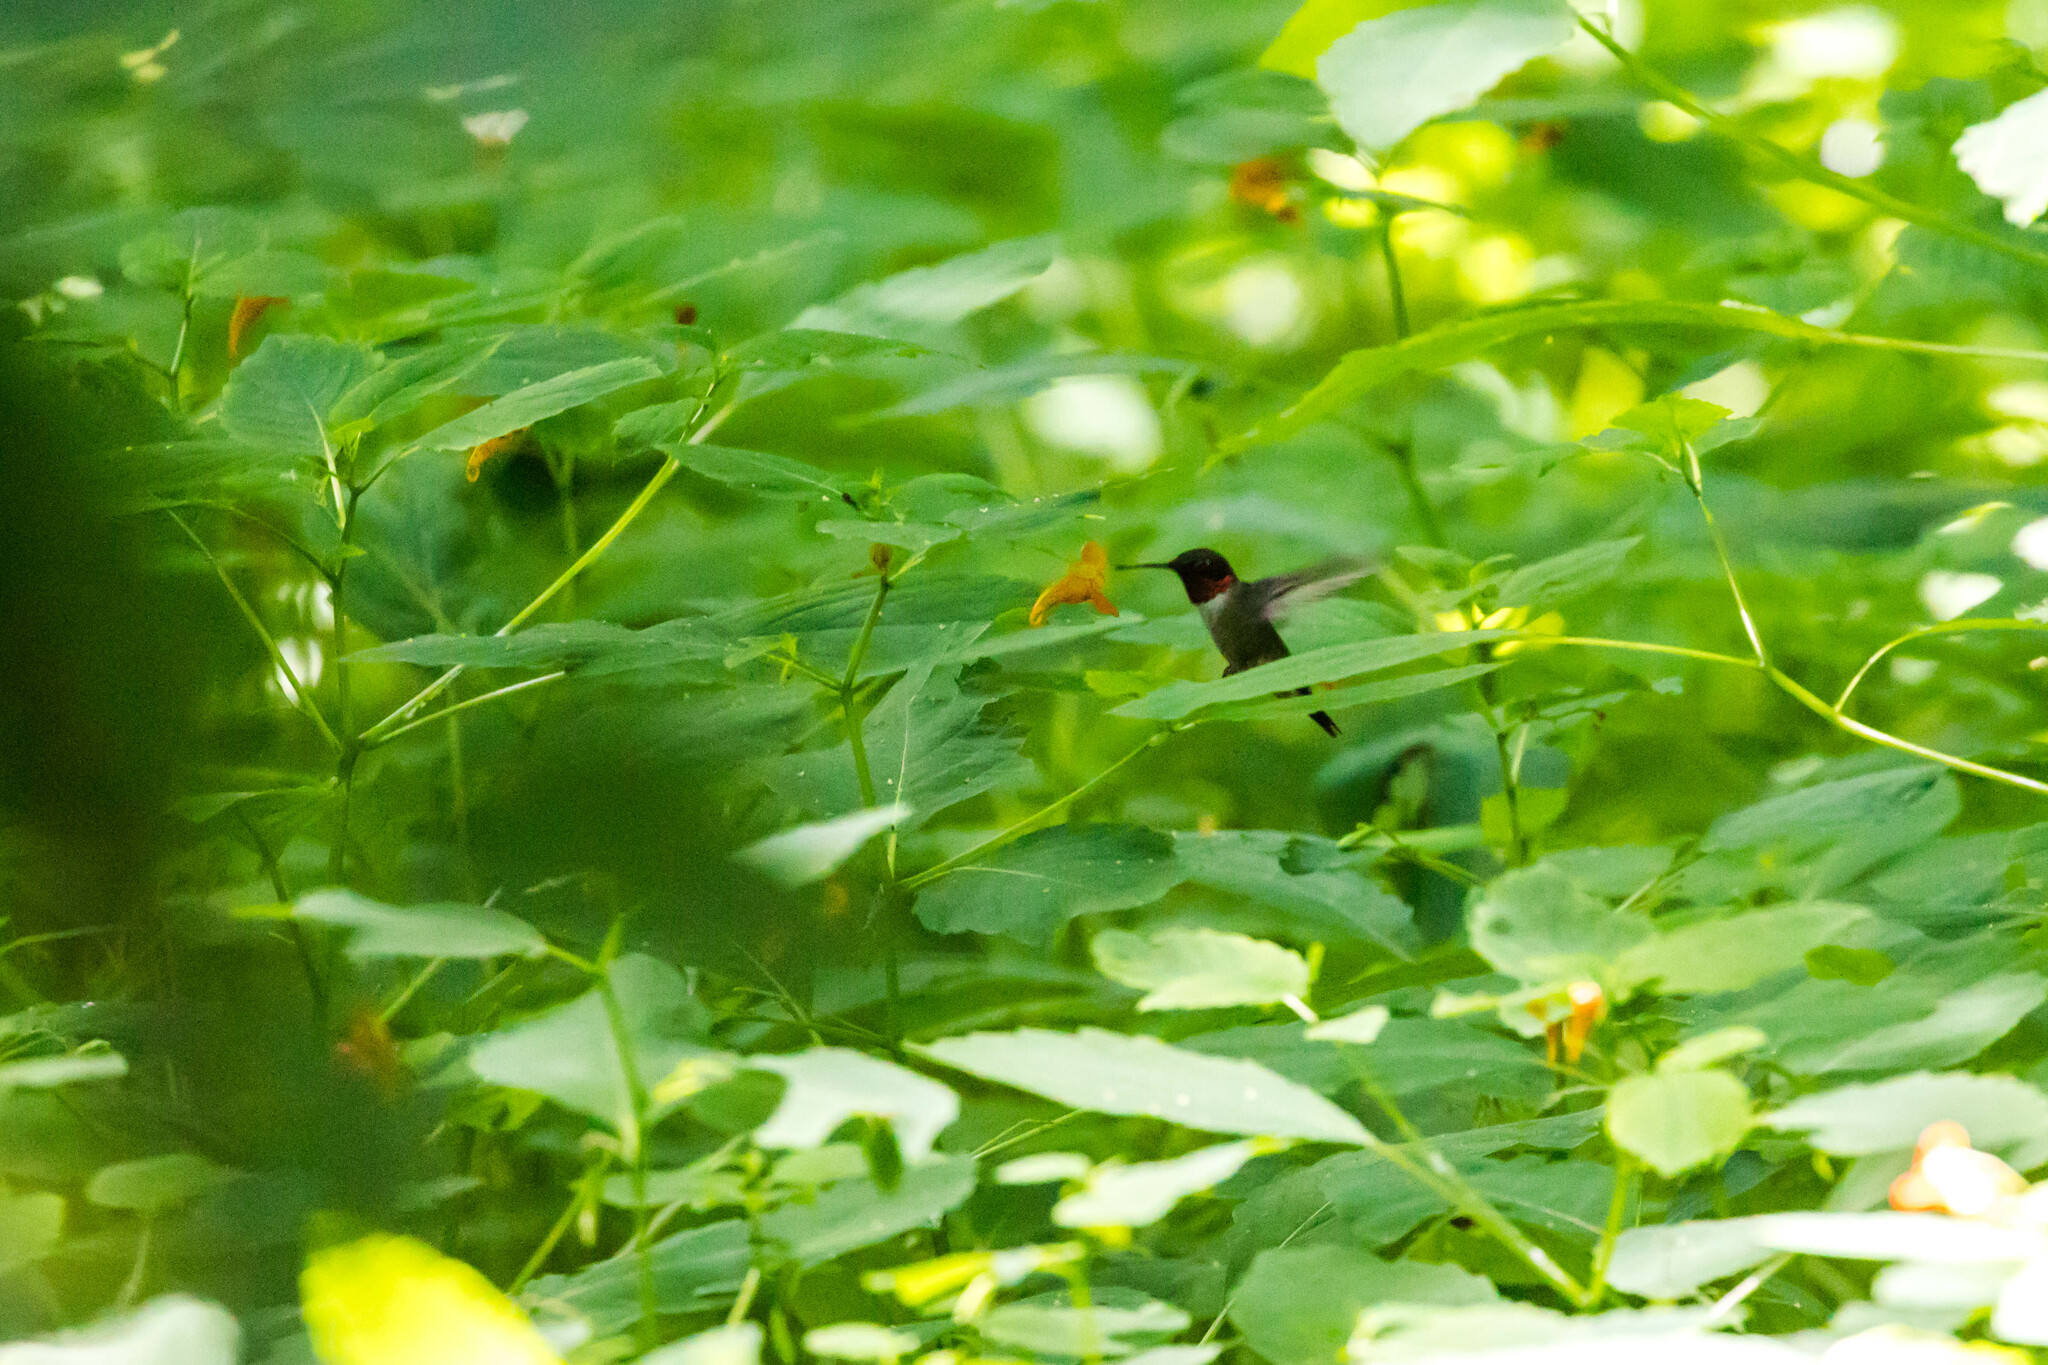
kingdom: Animalia
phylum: Chordata
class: Aves
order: Apodiformes
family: Trochilidae
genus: Archilochus
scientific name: Archilochus colubris
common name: Ruby-throated hummingbird
